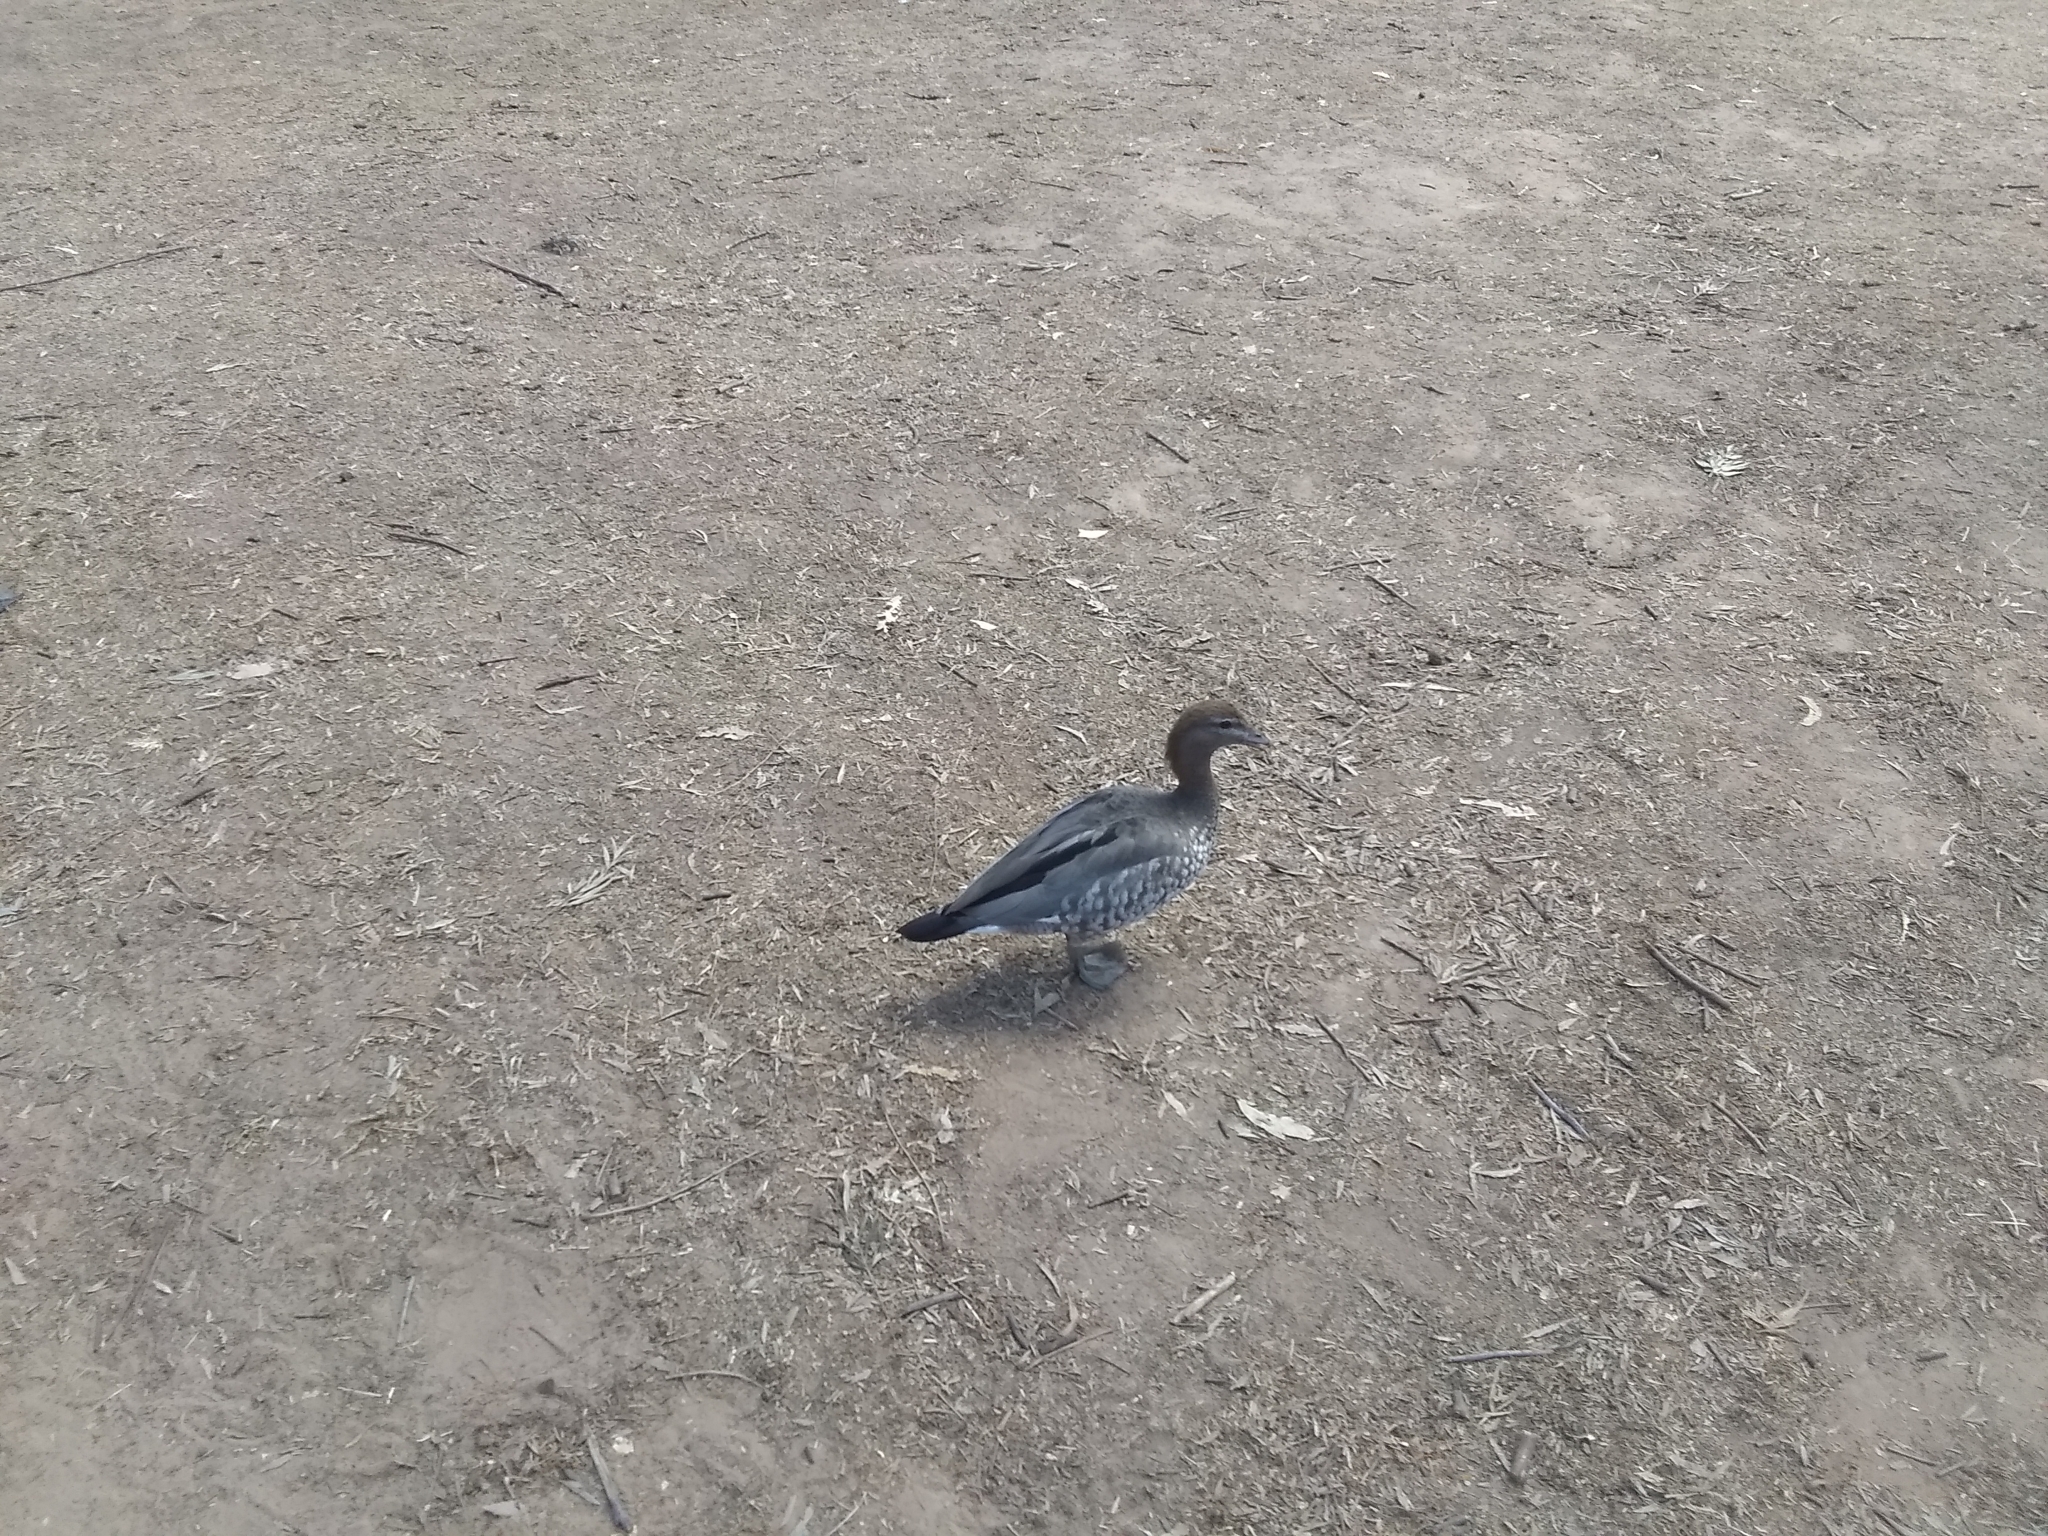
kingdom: Animalia
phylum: Chordata
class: Aves
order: Anseriformes
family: Anatidae
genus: Chenonetta
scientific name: Chenonetta jubata
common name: Maned duck
